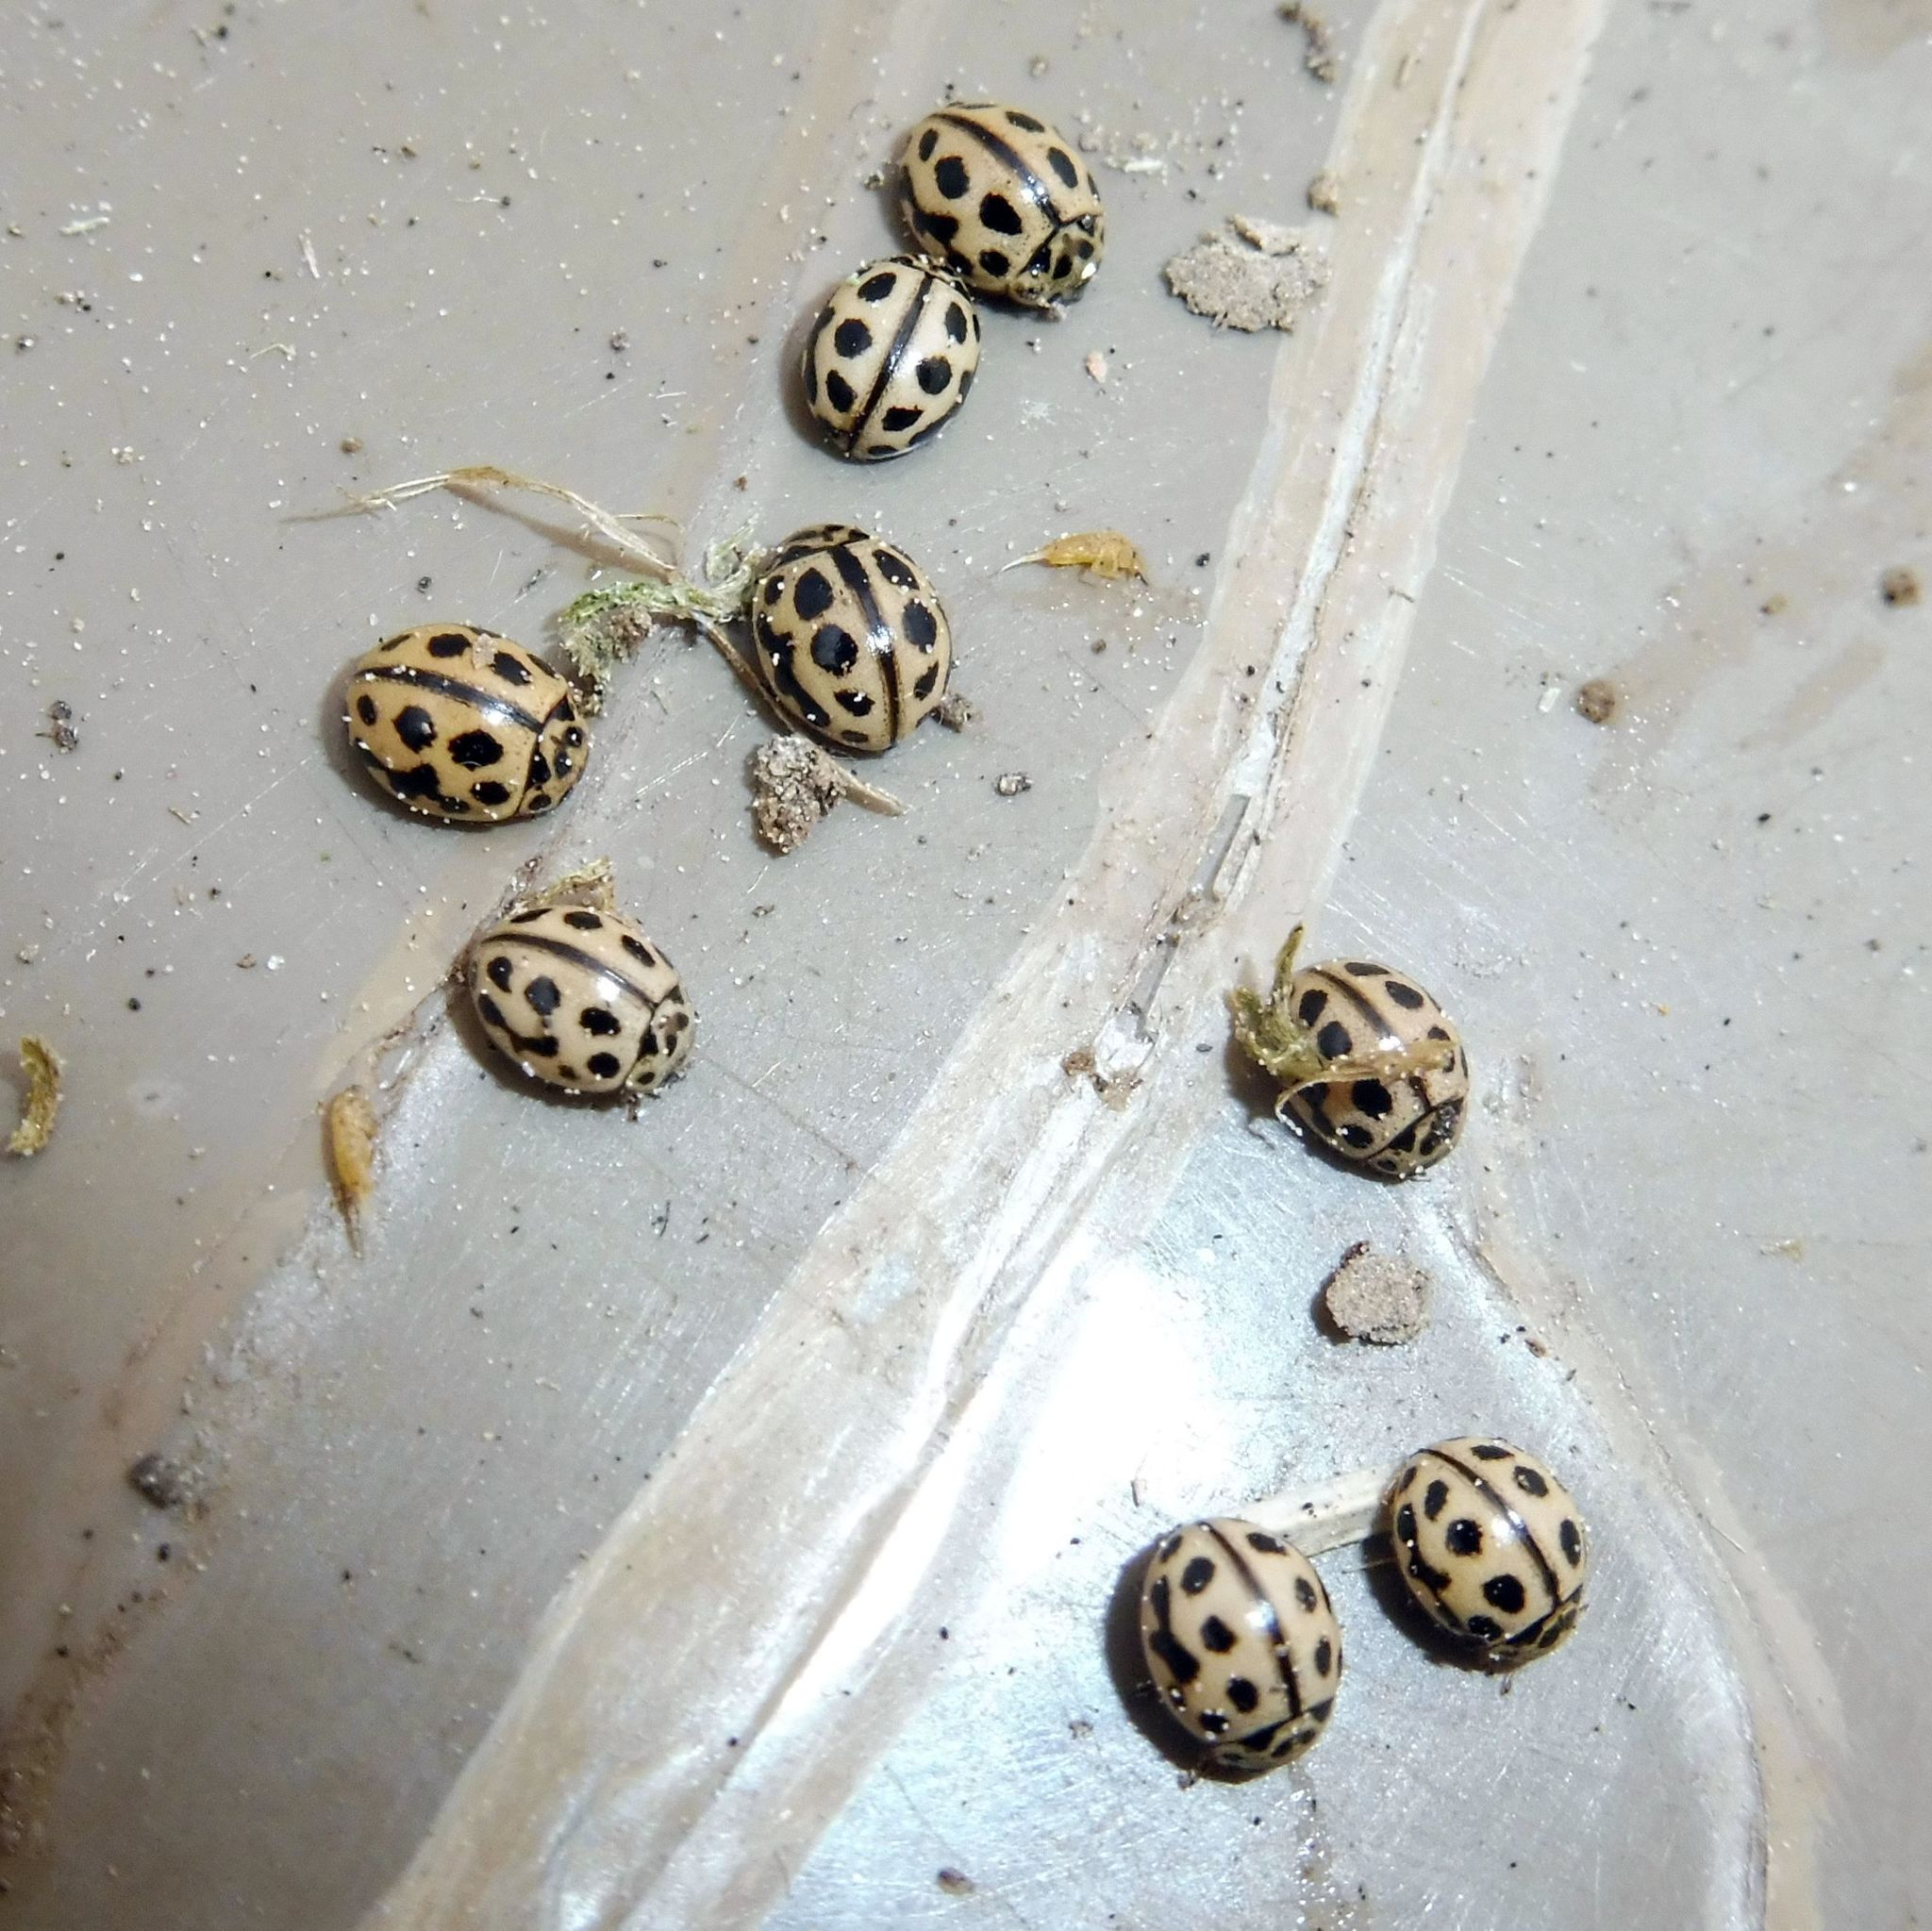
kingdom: Animalia
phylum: Arthropoda
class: Insecta
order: Coleoptera
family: Coccinellidae
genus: Tytthaspis
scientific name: Tytthaspis sedecimpunctata
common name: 16-spot ladybird
